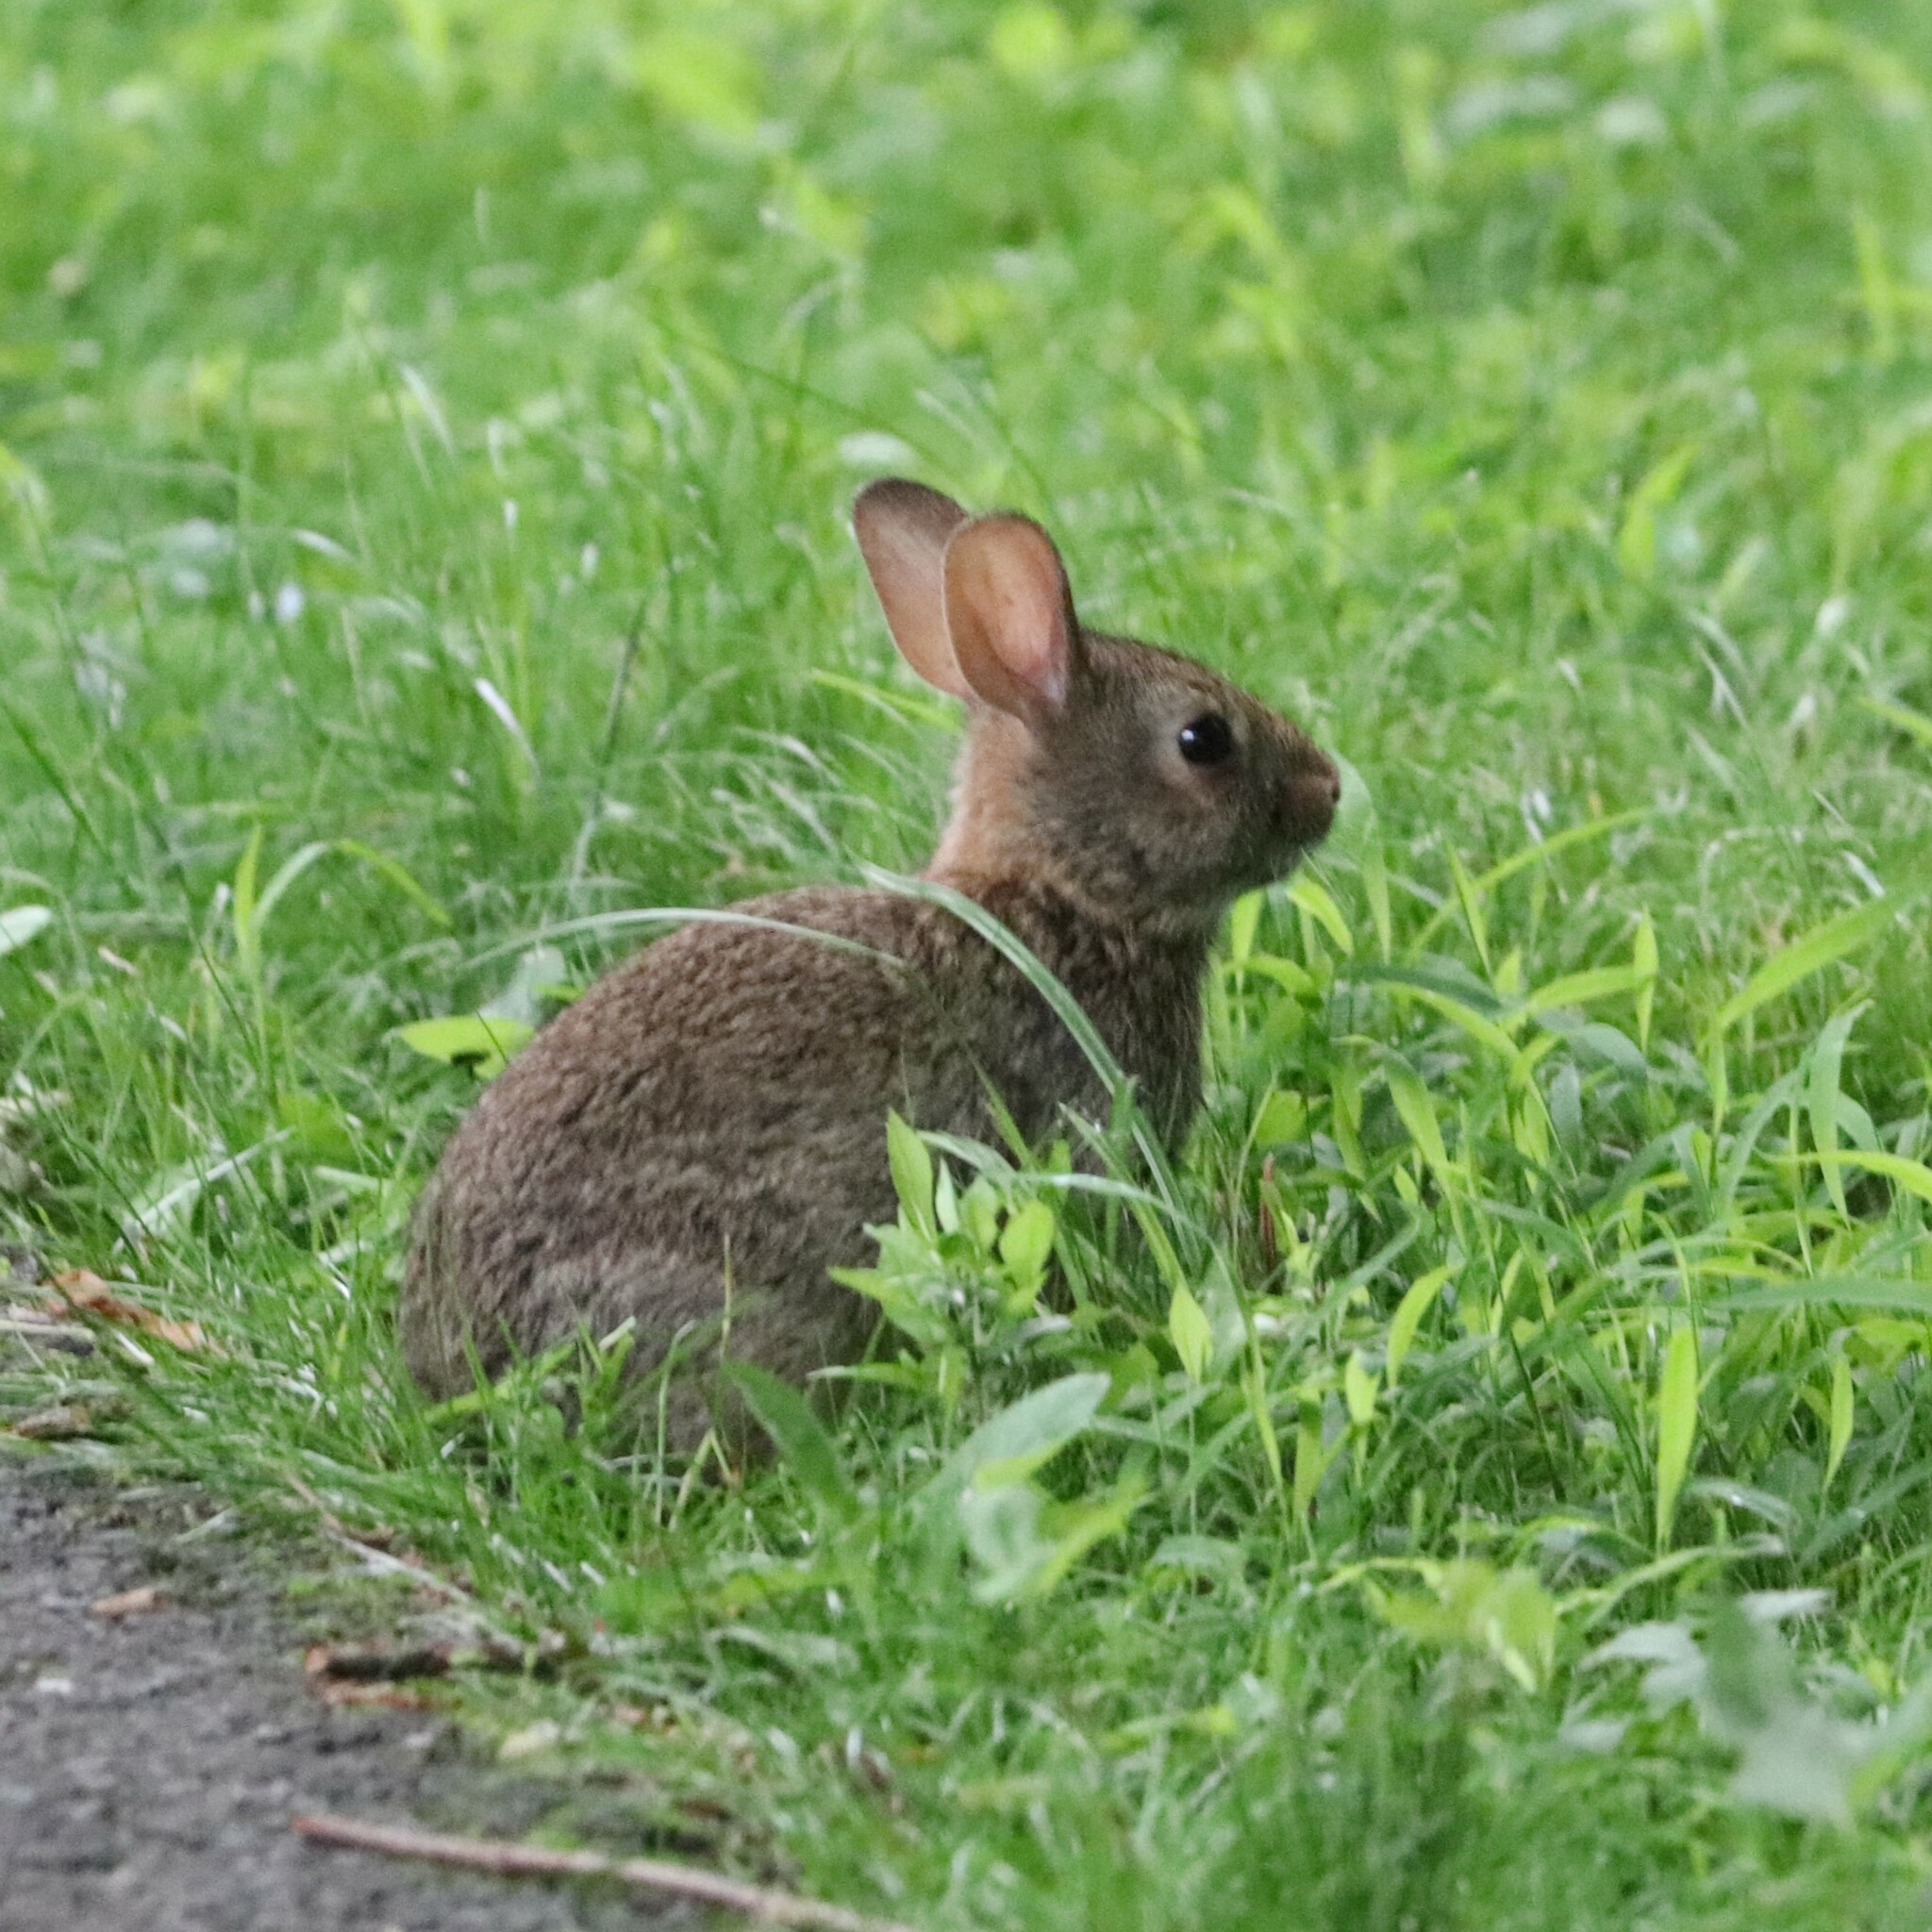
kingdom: Animalia
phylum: Chordata
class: Mammalia
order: Lagomorpha
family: Leporidae
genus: Sylvilagus
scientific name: Sylvilagus floridanus
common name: Eastern cottontail
